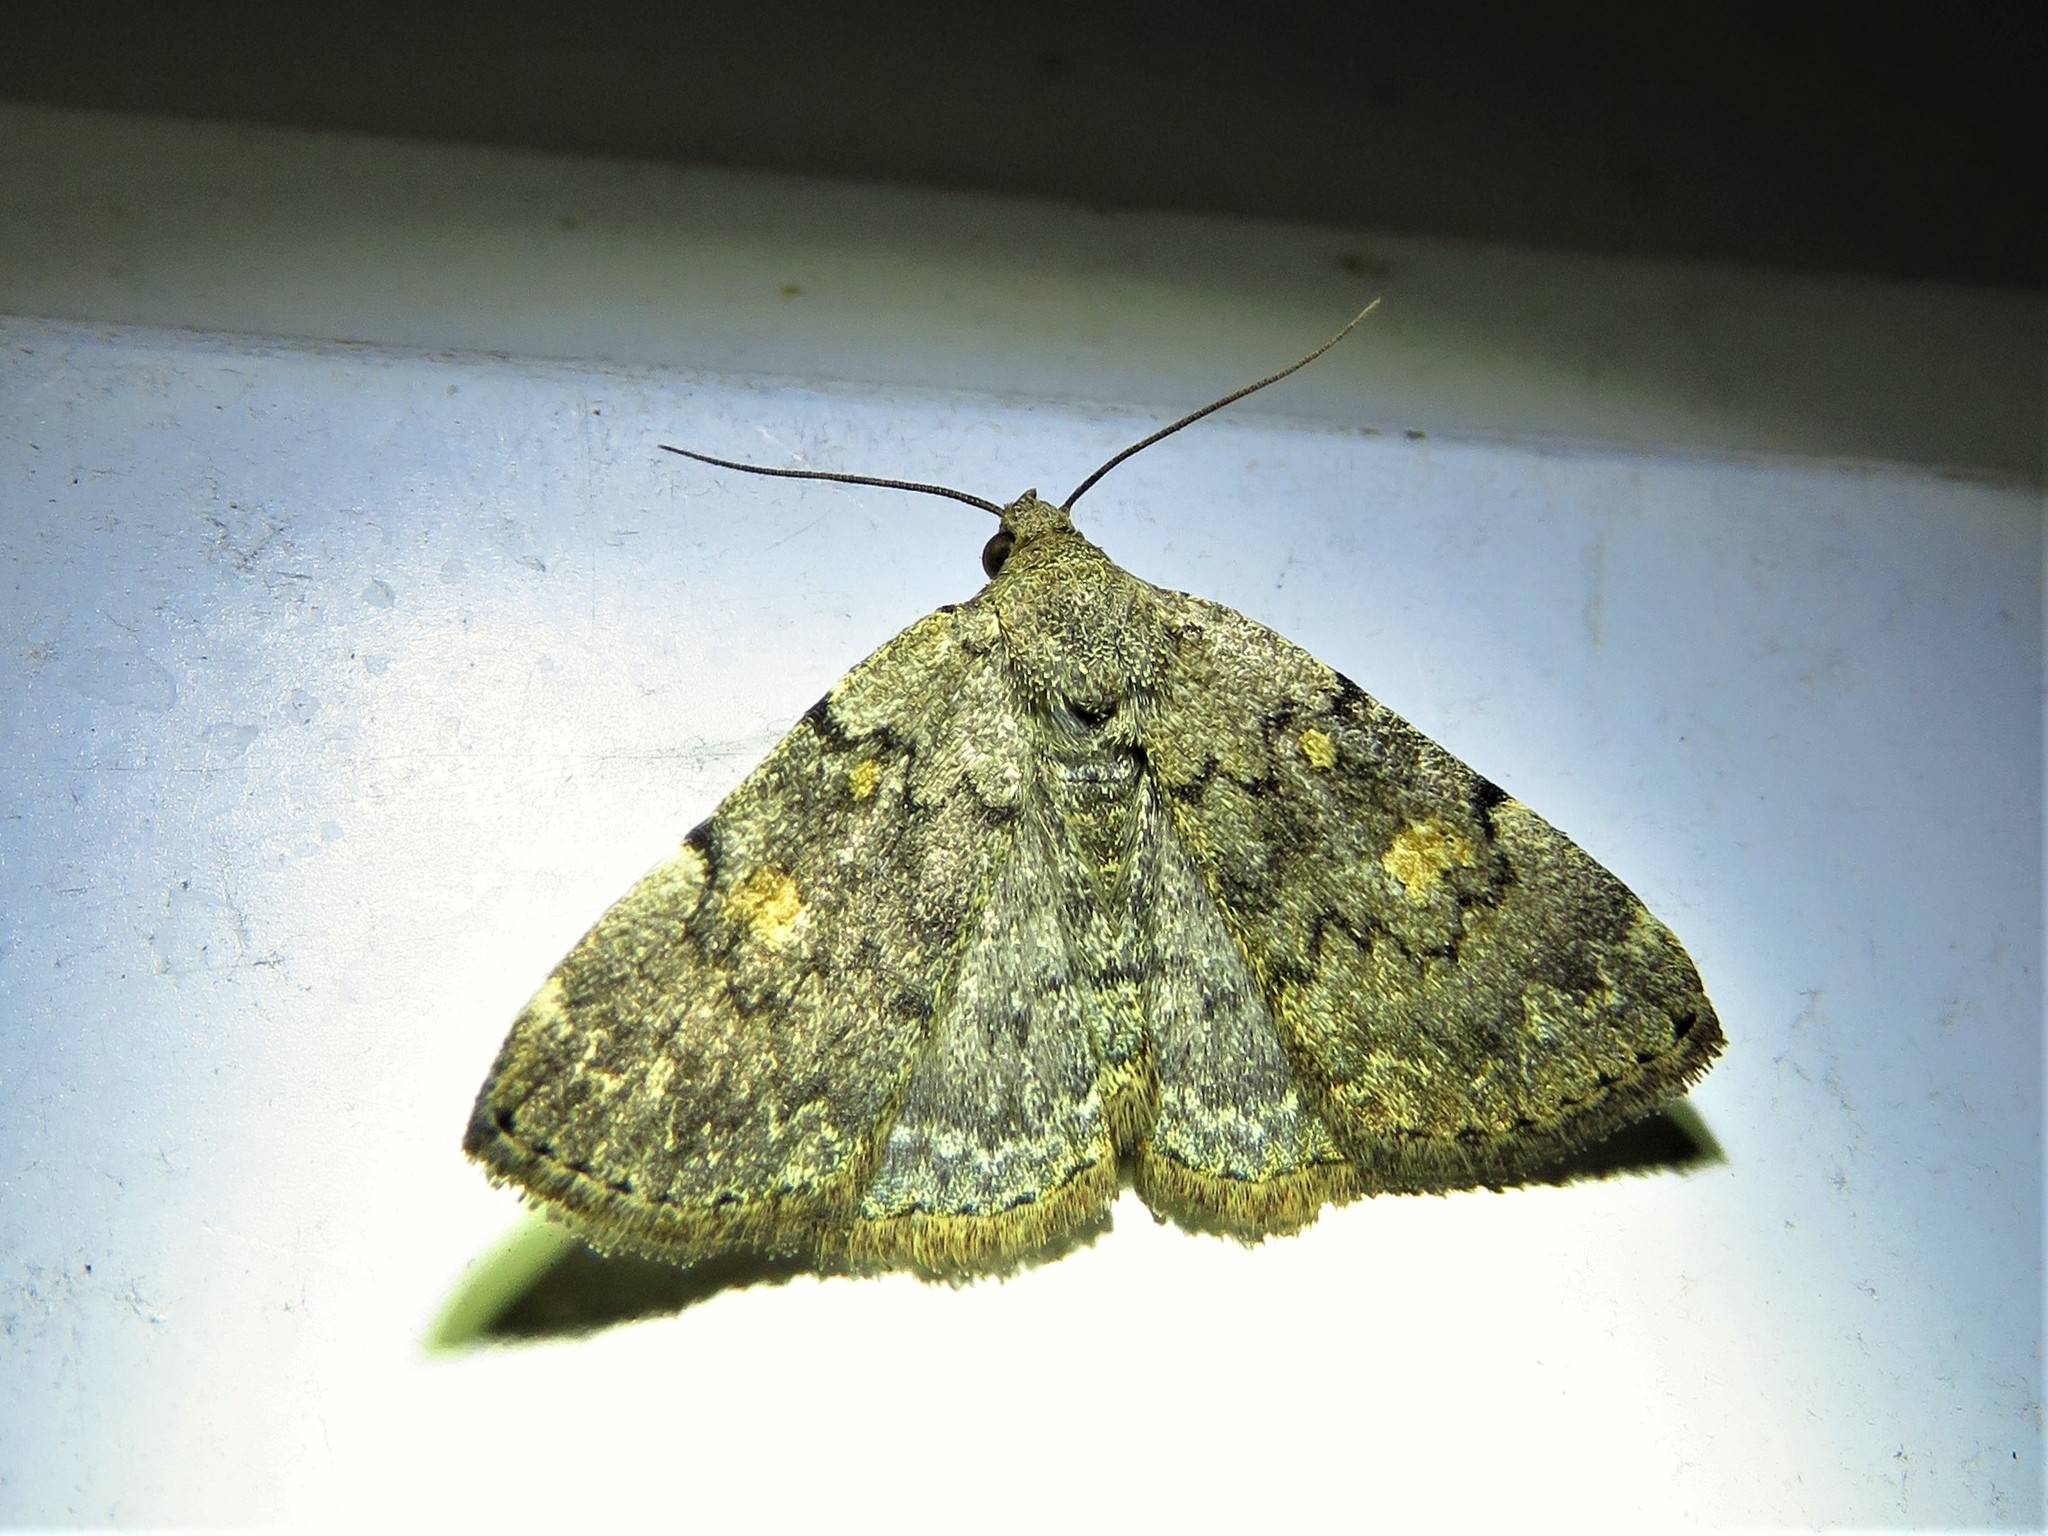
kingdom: Animalia
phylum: Arthropoda
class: Insecta
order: Lepidoptera
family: Erebidae
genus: Idia
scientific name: Idia aemula
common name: Common idia moth
